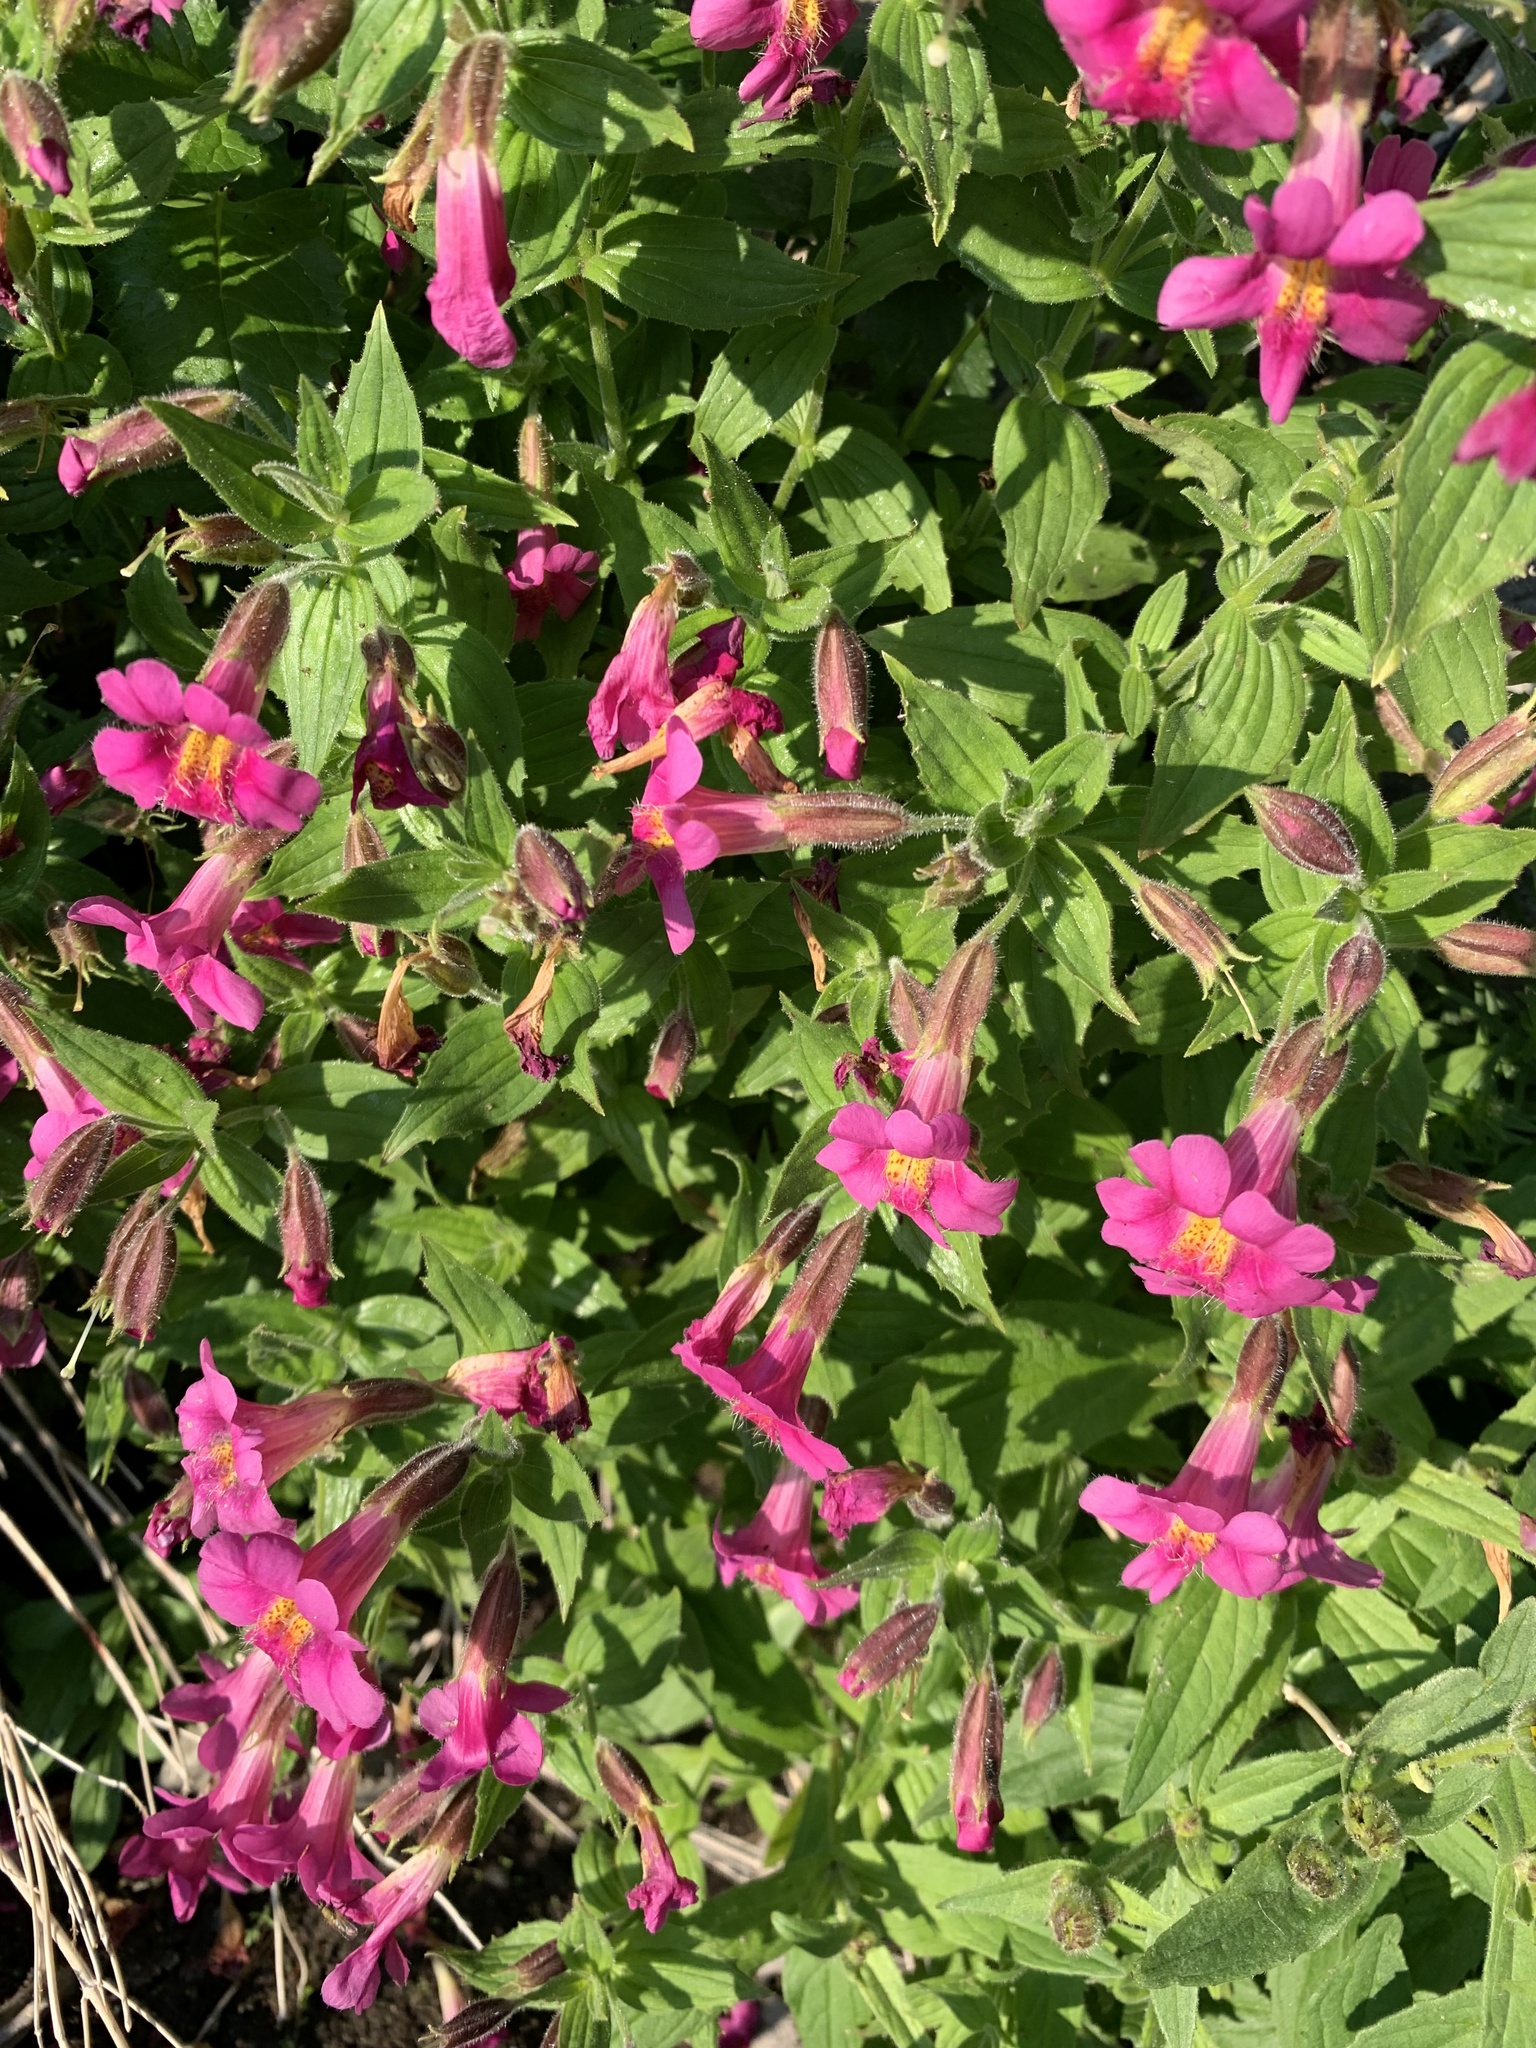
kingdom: Plantae
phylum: Tracheophyta
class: Magnoliopsida
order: Lamiales
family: Phrymaceae
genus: Erythranthe
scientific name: Erythranthe lewisii
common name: Lewis's monkey-flower
